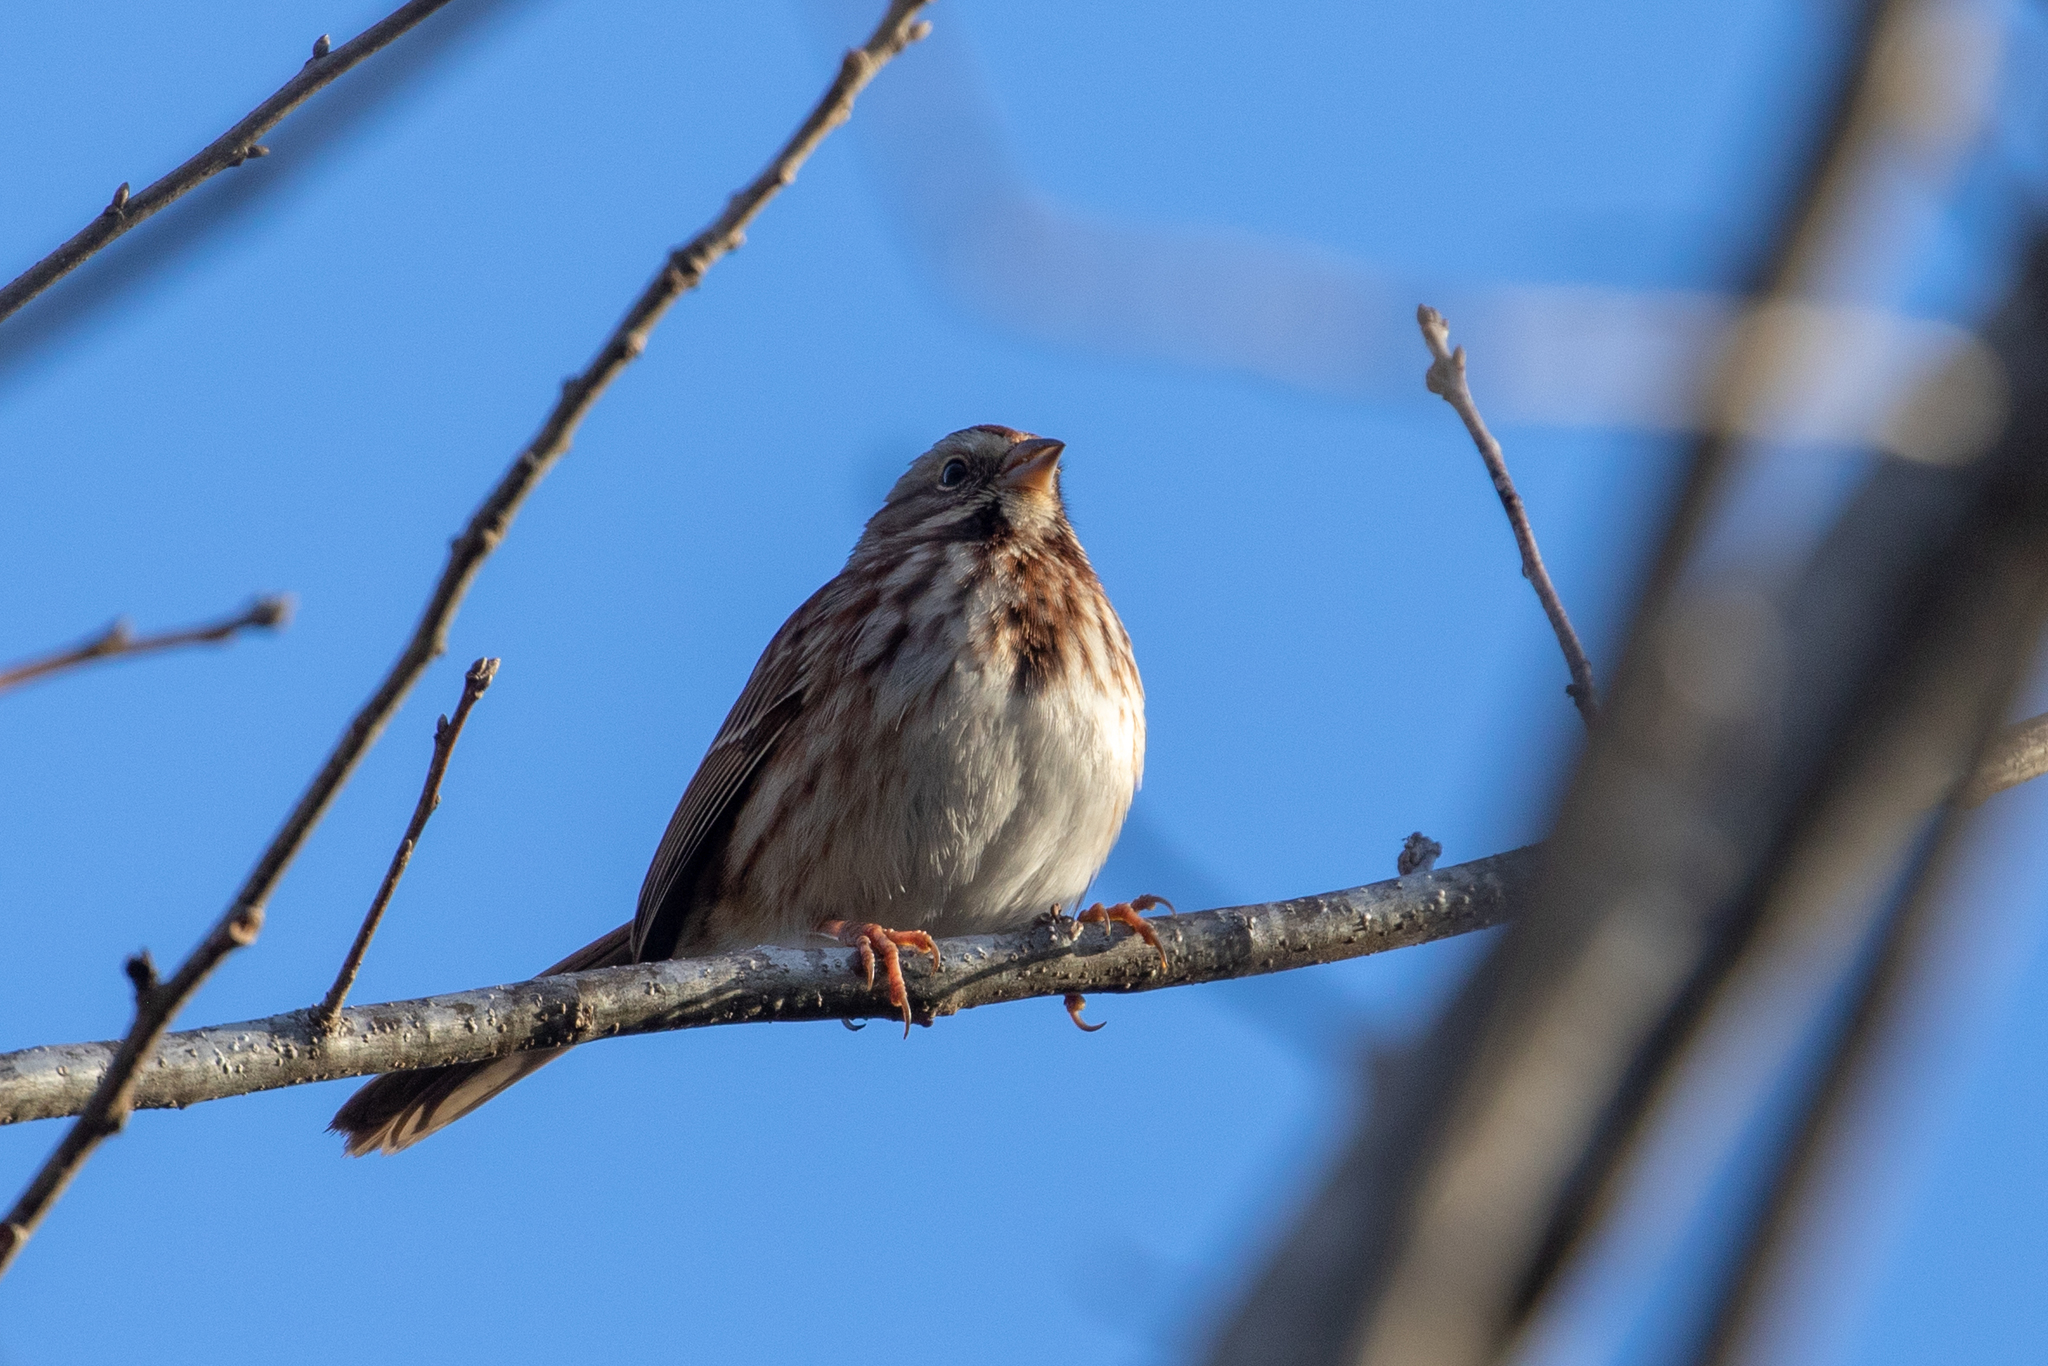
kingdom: Animalia
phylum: Chordata
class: Aves
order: Passeriformes
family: Passerellidae
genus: Melospiza
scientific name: Melospiza melodia
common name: Song sparrow
